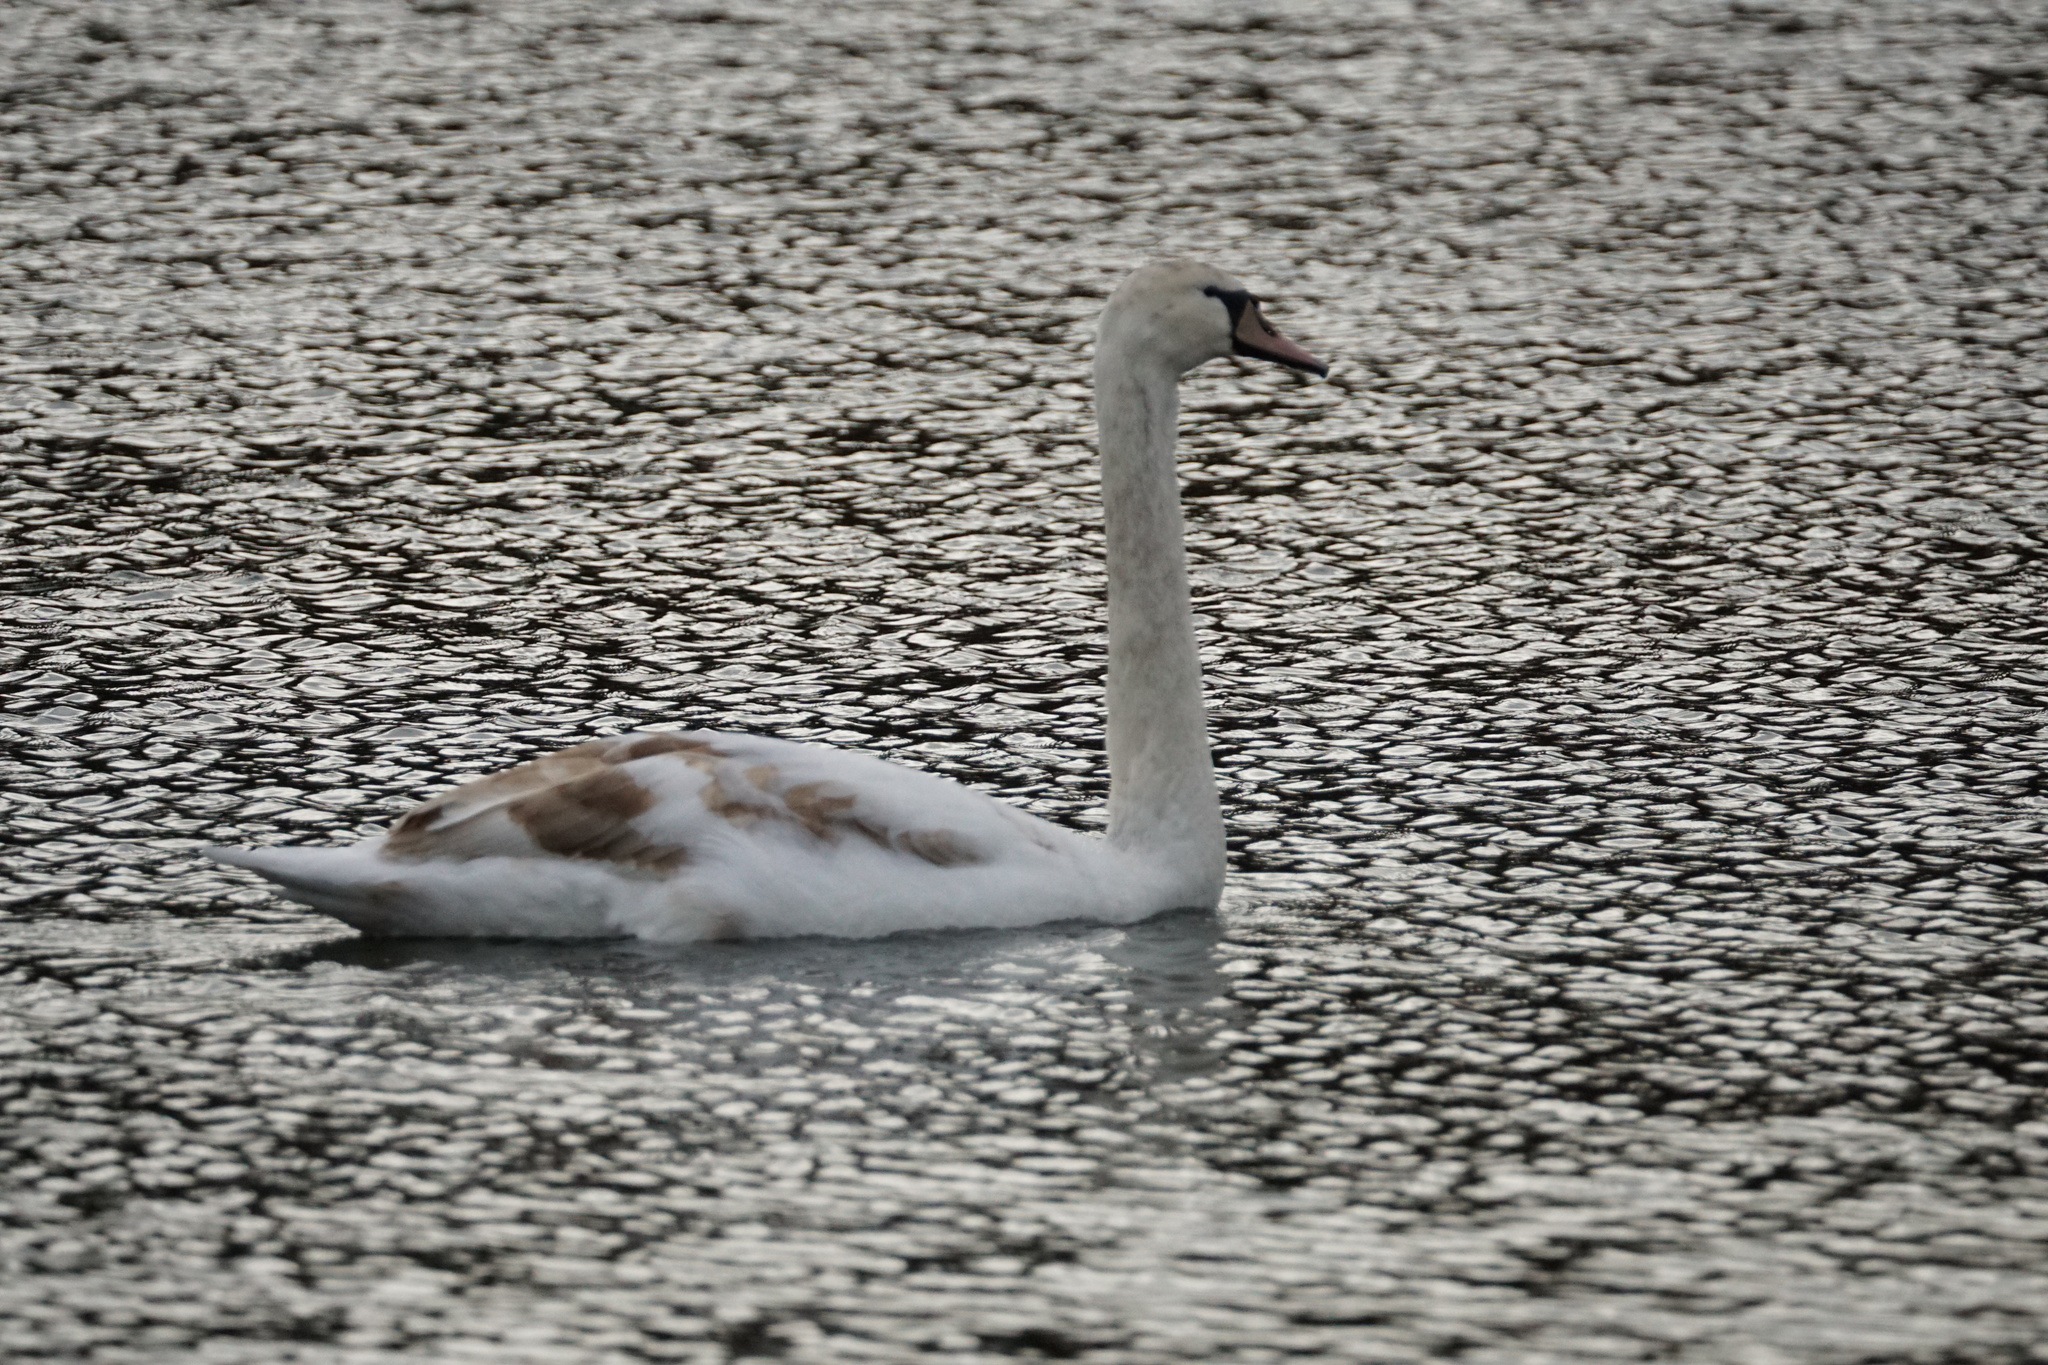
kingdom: Animalia
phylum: Chordata
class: Aves
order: Anseriformes
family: Anatidae
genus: Cygnus
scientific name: Cygnus olor
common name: Mute swan
